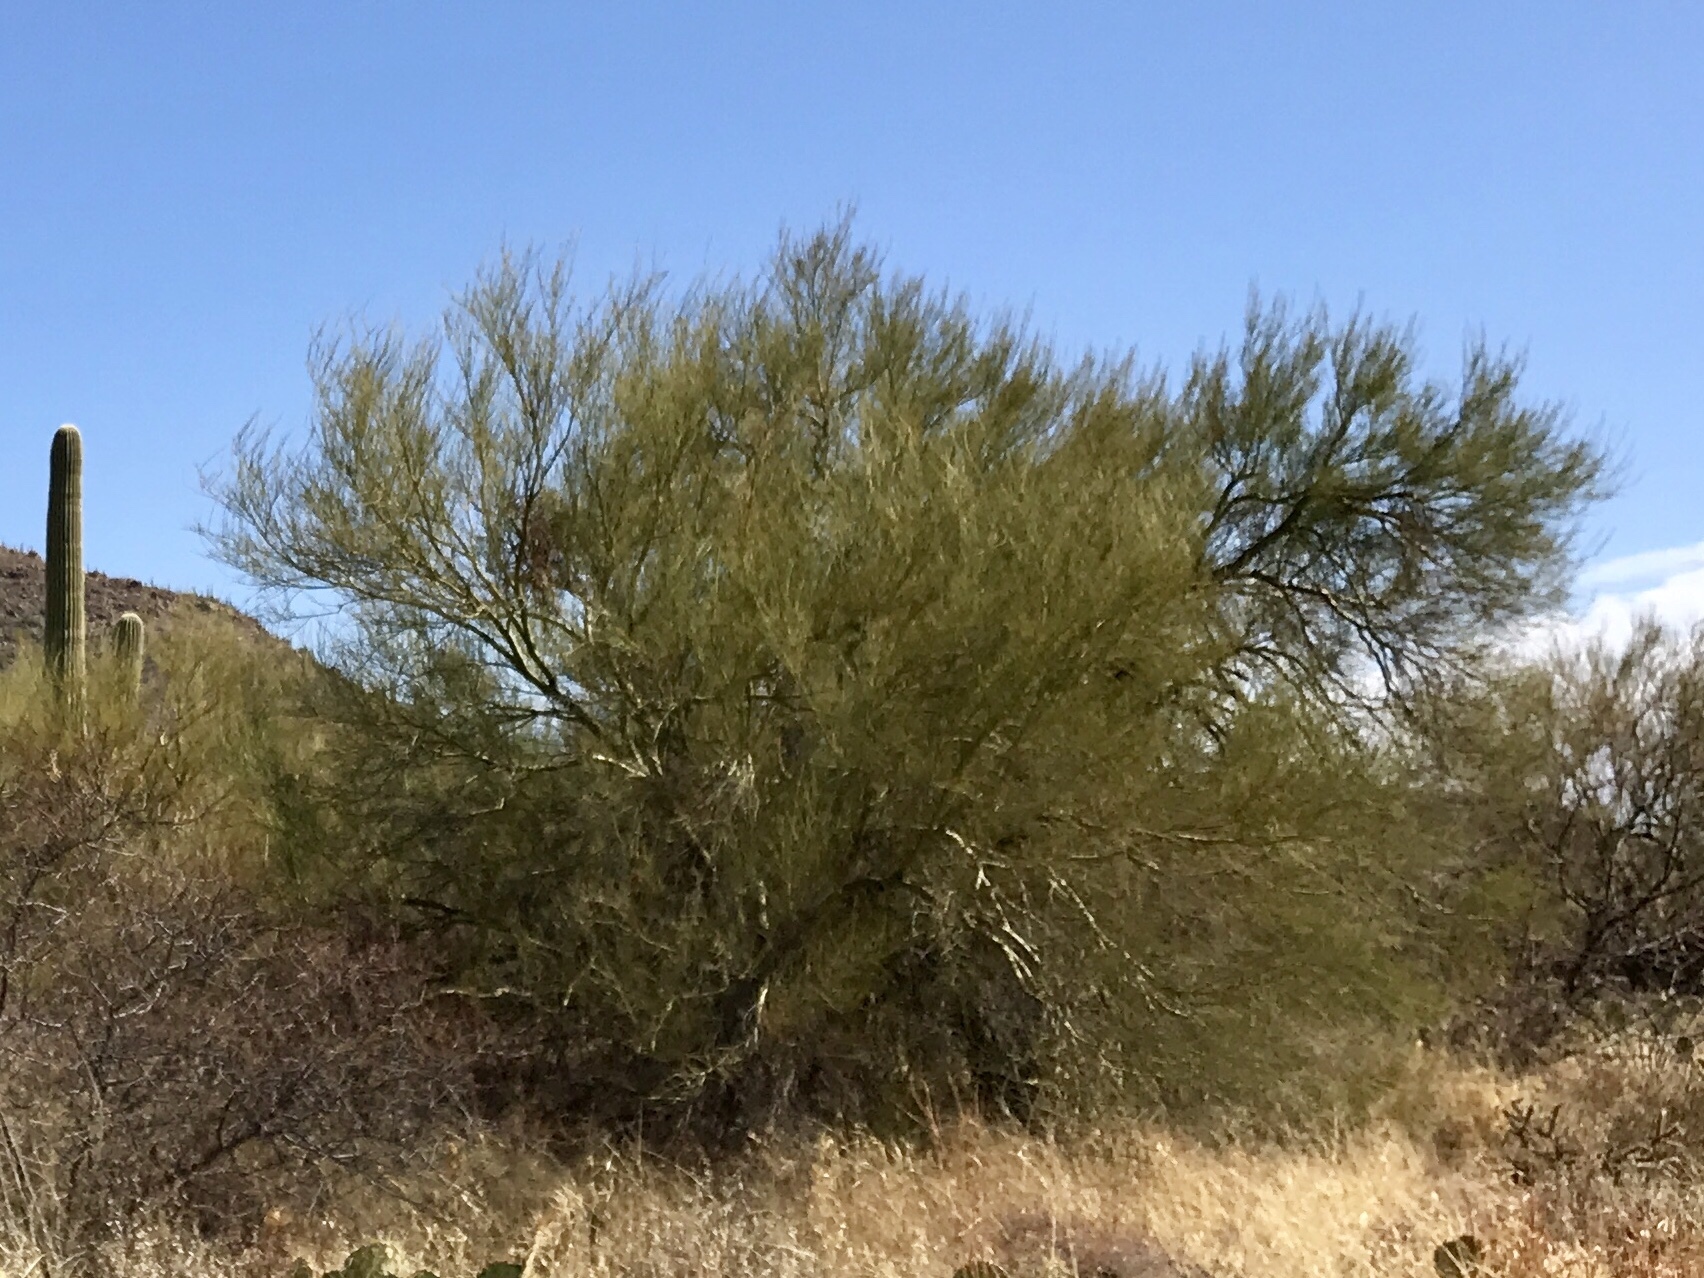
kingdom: Plantae
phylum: Tracheophyta
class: Magnoliopsida
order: Fabales
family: Fabaceae
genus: Parkinsonia
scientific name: Parkinsonia microphylla
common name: Yellow paloverde
